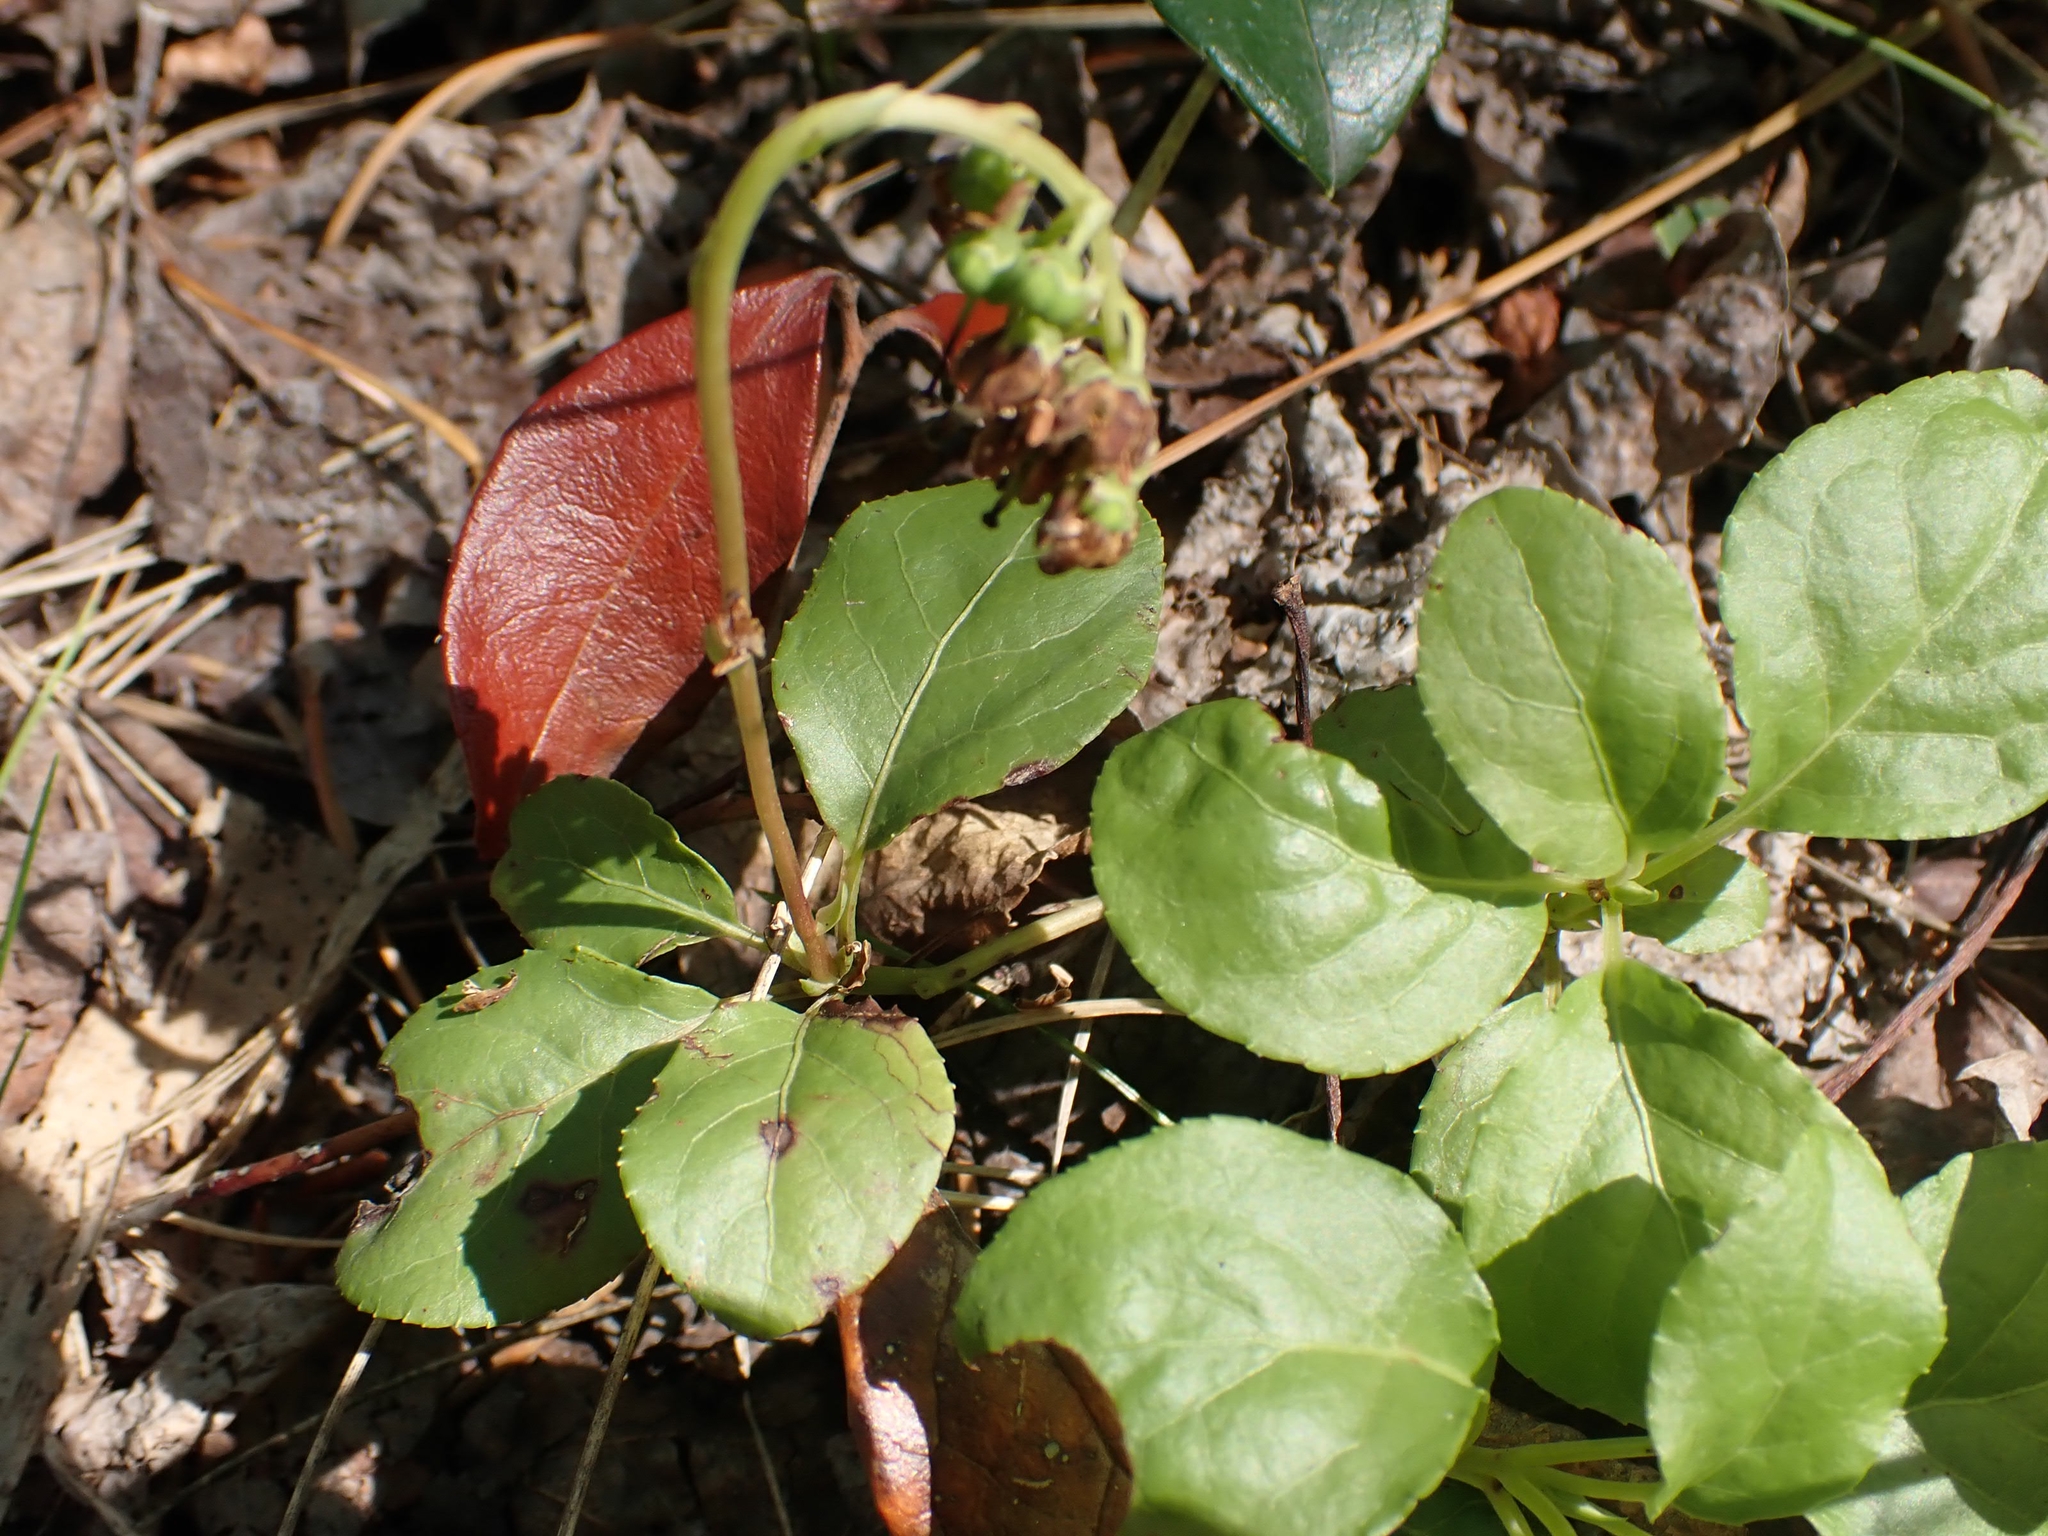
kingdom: Plantae
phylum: Tracheophyta
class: Magnoliopsida
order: Ericales
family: Ericaceae
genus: Orthilia
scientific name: Orthilia secunda
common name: One-sided orthilia
